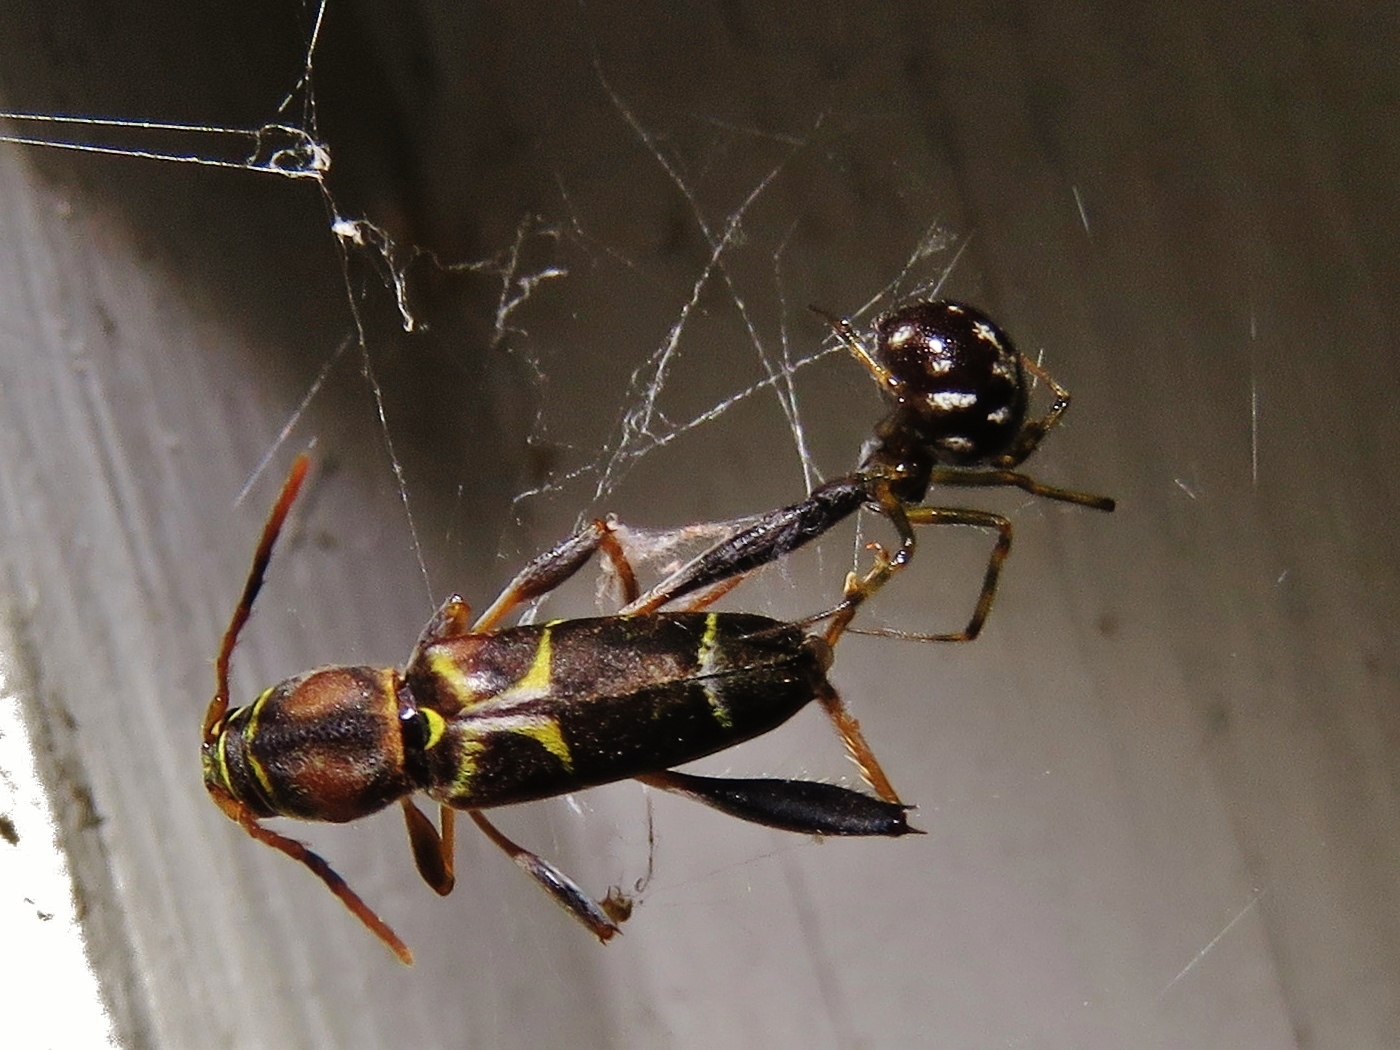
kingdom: Animalia
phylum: Arthropoda
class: Insecta
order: Coleoptera
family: Cerambycidae
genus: Neoclytus
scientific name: Neoclytus mucronatus
